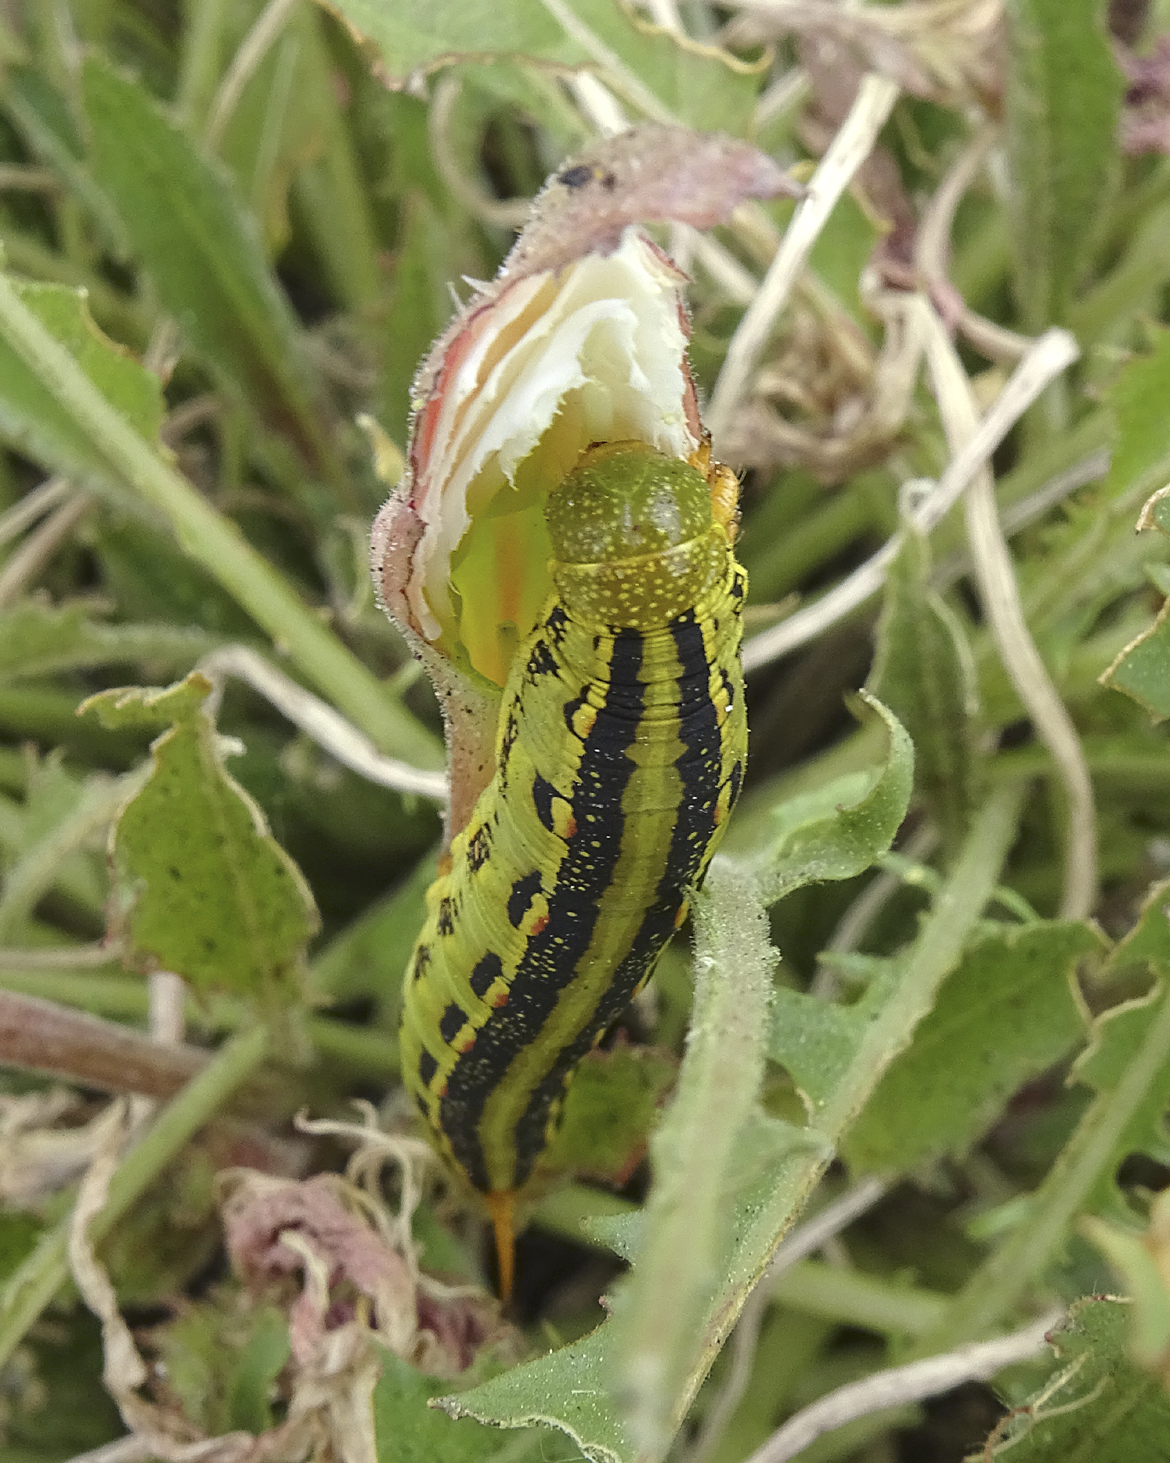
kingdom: Animalia
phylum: Arthropoda
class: Insecta
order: Lepidoptera
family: Sphingidae
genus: Hyles
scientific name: Hyles lineata
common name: White-lined sphinx
